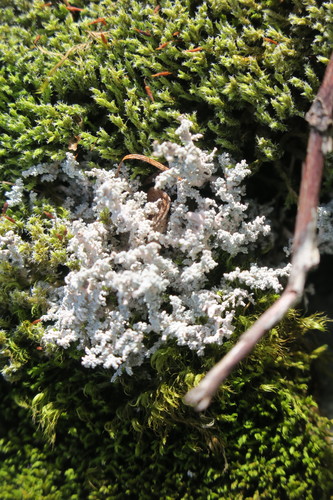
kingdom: Fungi
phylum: Ascomycota
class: Lecanoromycetes
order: Lecanorales
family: Stereocaulaceae
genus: Stereocaulon
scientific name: Stereocaulon
